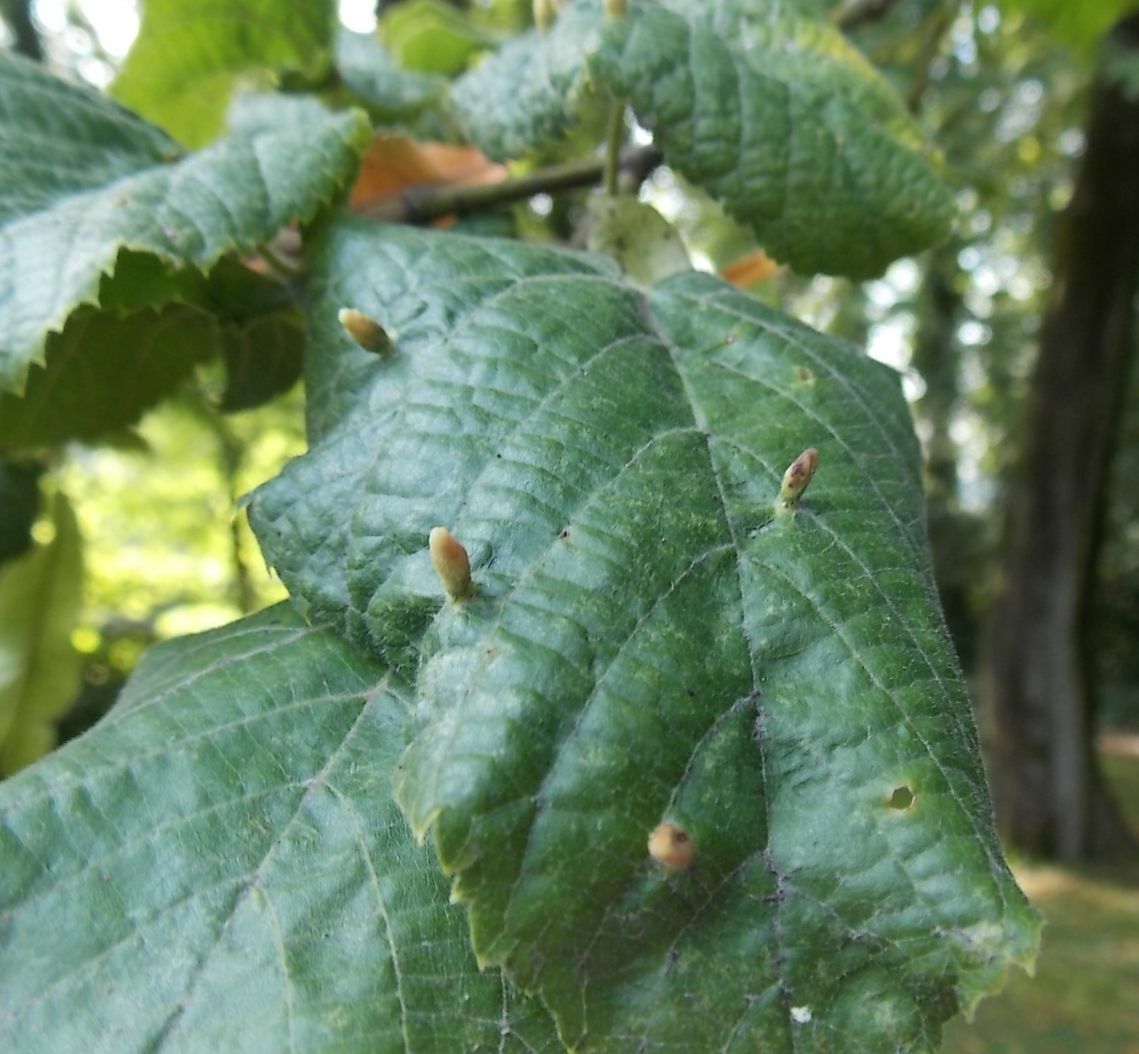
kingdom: Animalia
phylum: Arthropoda
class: Arachnida
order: Trombidiformes
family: Eriophyidae
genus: Eriophyes
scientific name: Eriophyes tiliae
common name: Red nail gall mite
